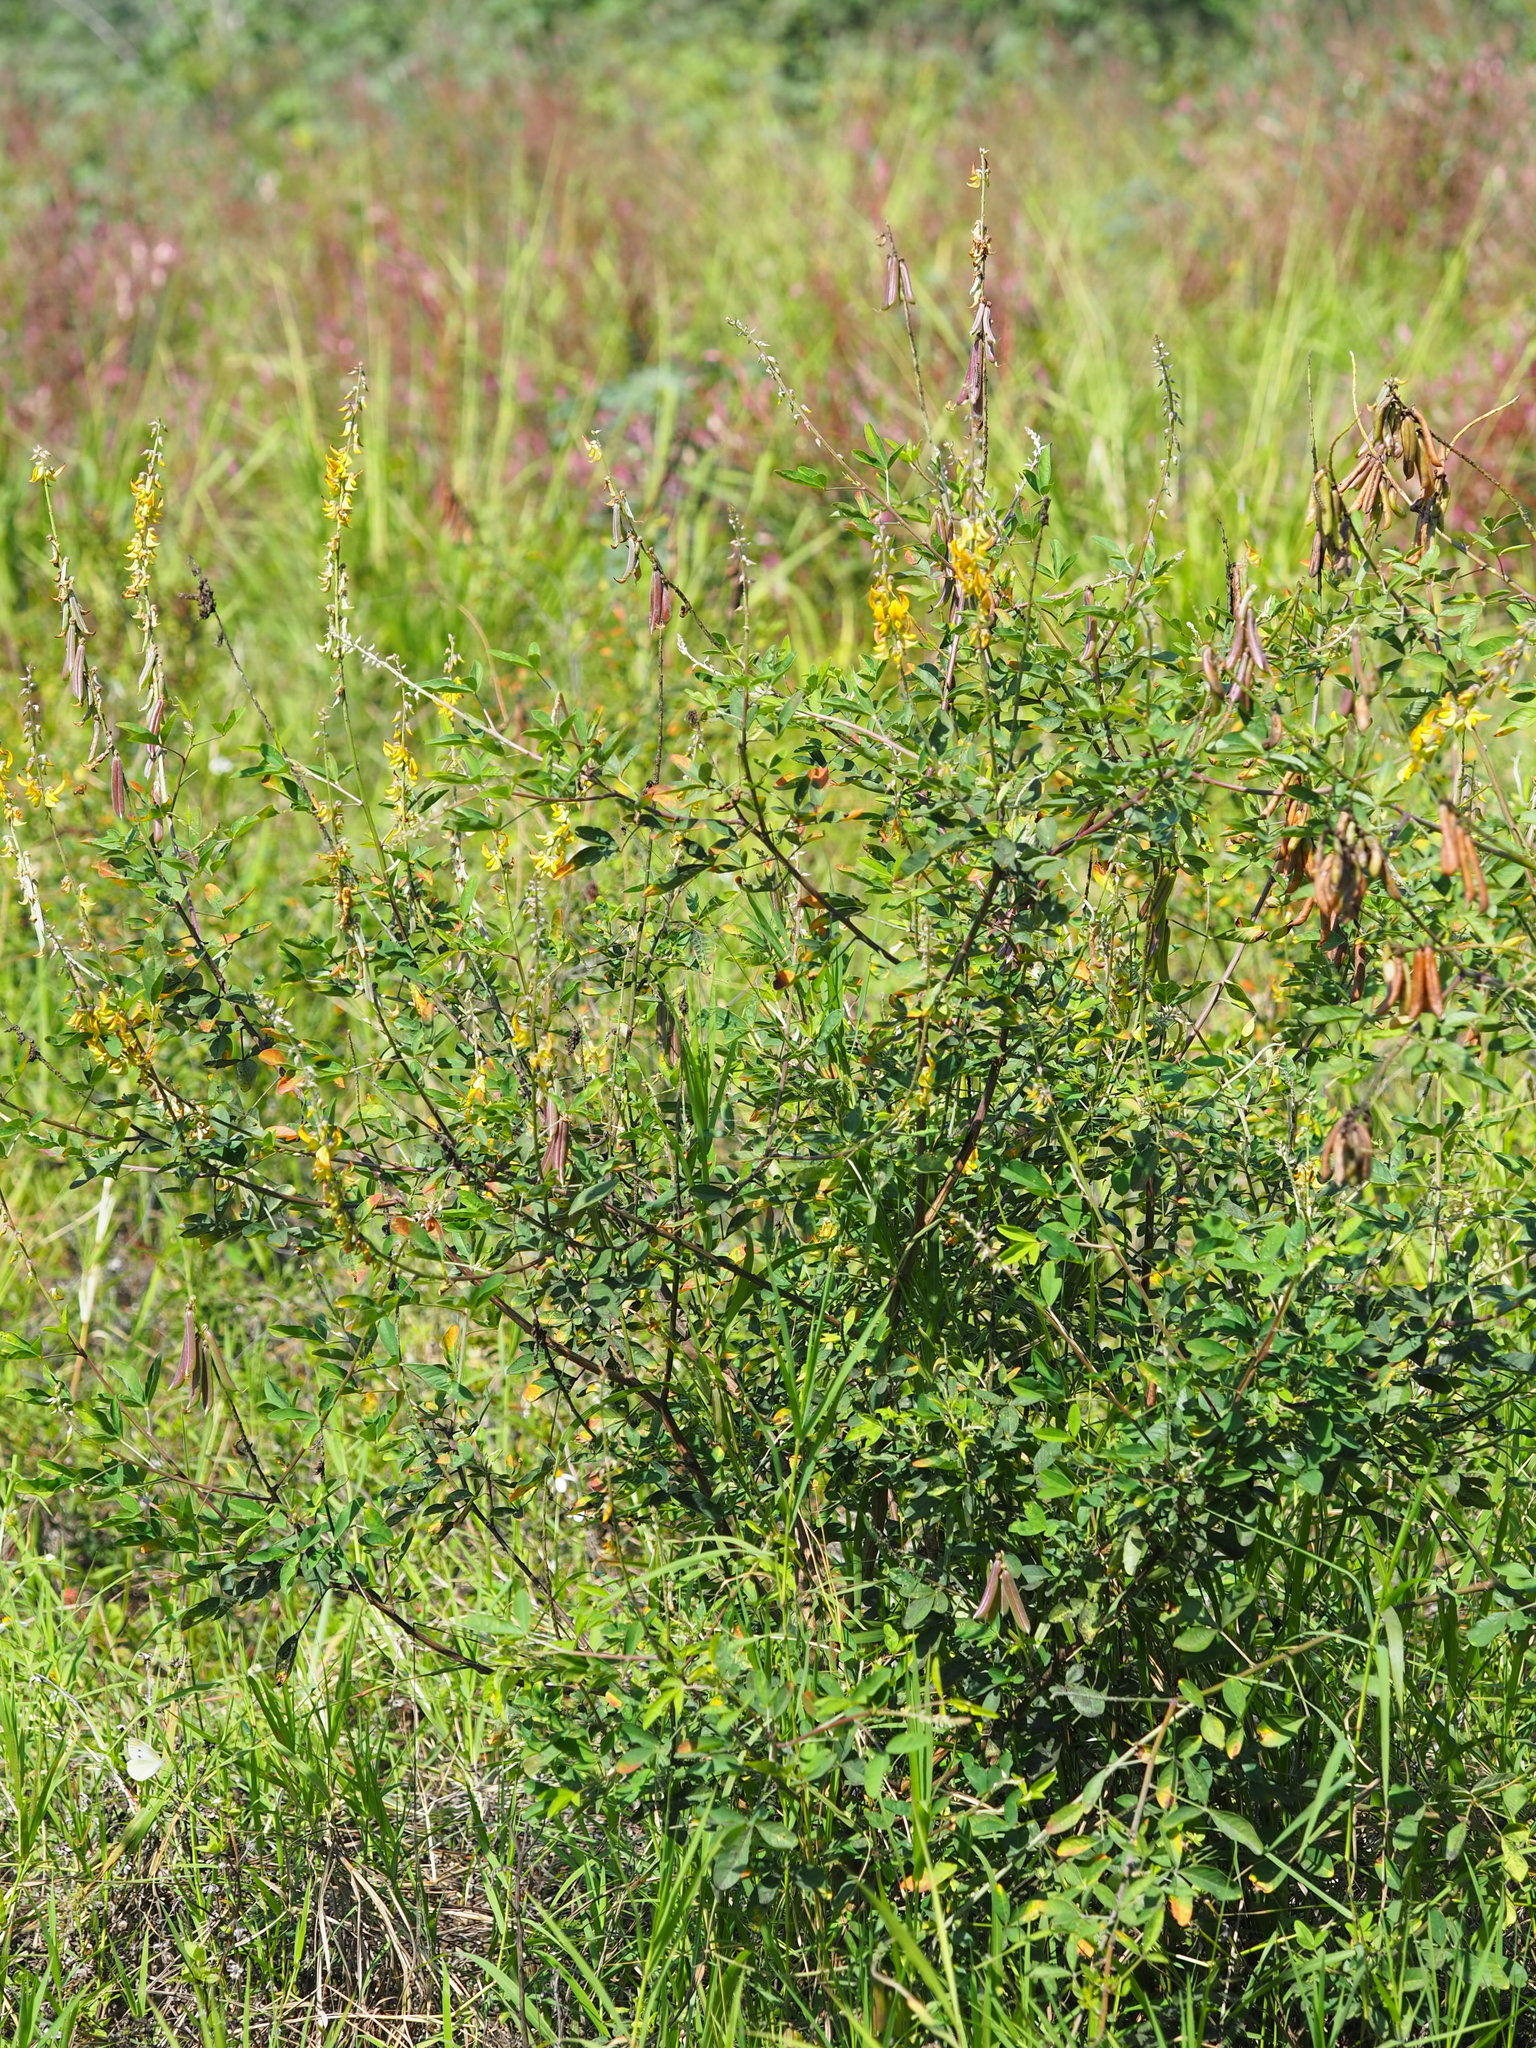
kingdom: Plantae
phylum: Tracheophyta
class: Magnoliopsida
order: Fabales
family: Fabaceae
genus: Crotalaria
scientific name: Crotalaria pallida
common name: Smooth rattlebox
